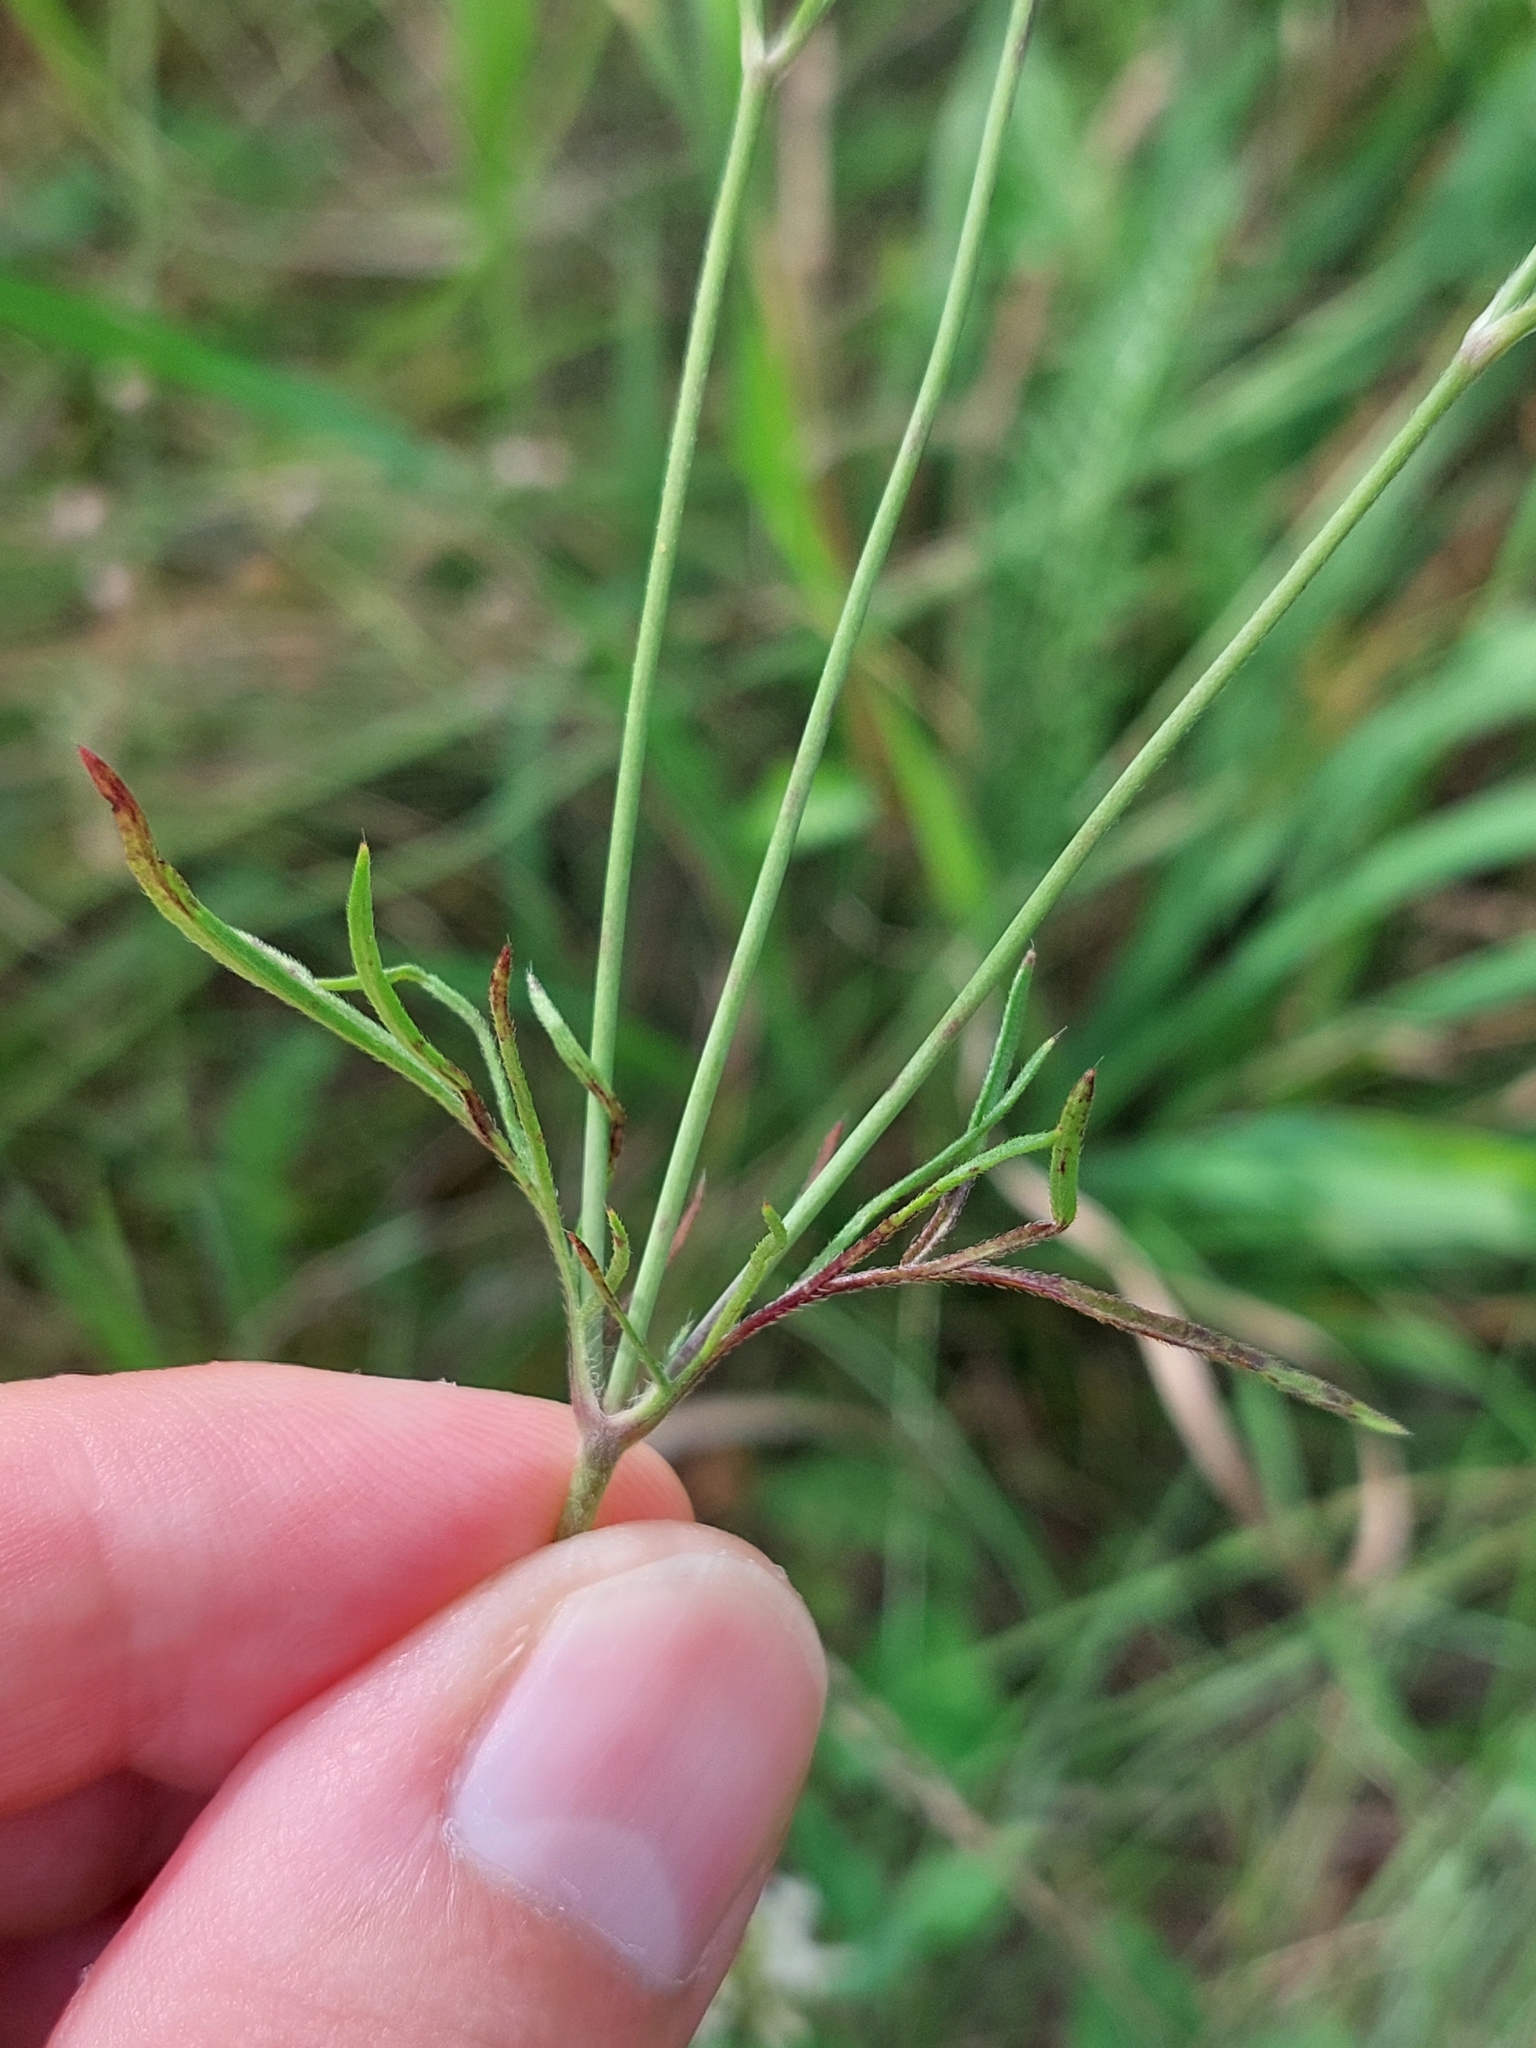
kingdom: Plantae
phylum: Tracheophyta
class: Magnoliopsida
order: Dipsacales
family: Caprifoliaceae
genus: Scabiosa
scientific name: Scabiosa ochroleuca
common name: Cream pincushions
